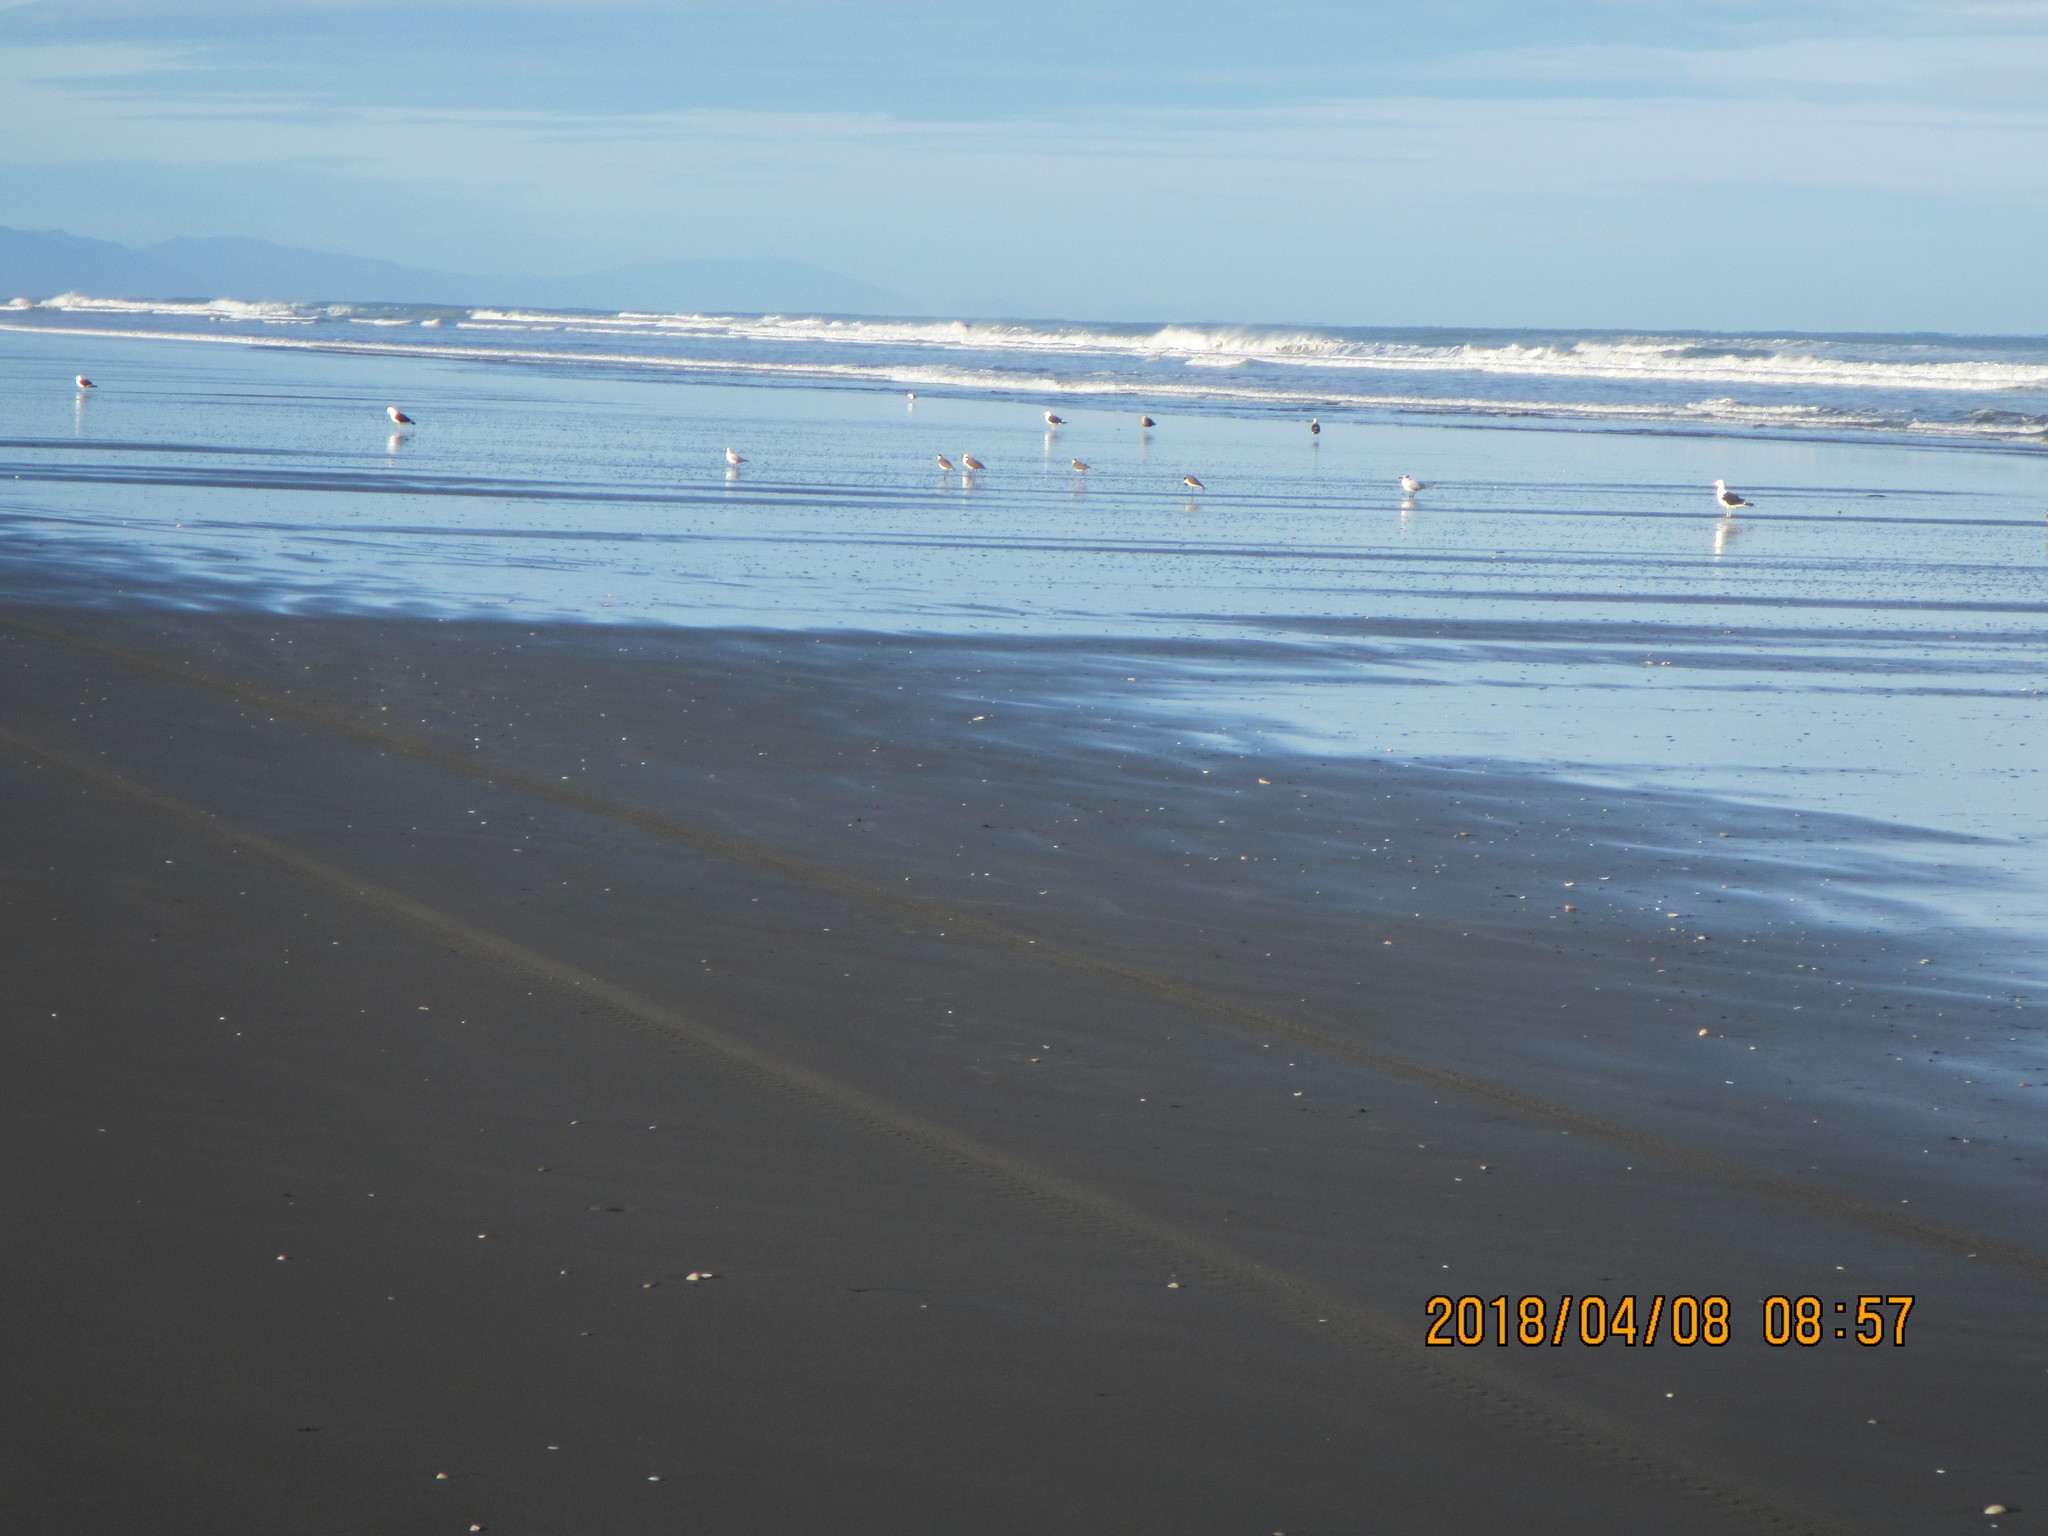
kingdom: Animalia
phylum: Chordata
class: Aves
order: Charadriiformes
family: Charadriidae
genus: Vanellus
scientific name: Vanellus miles
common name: Masked lapwing
